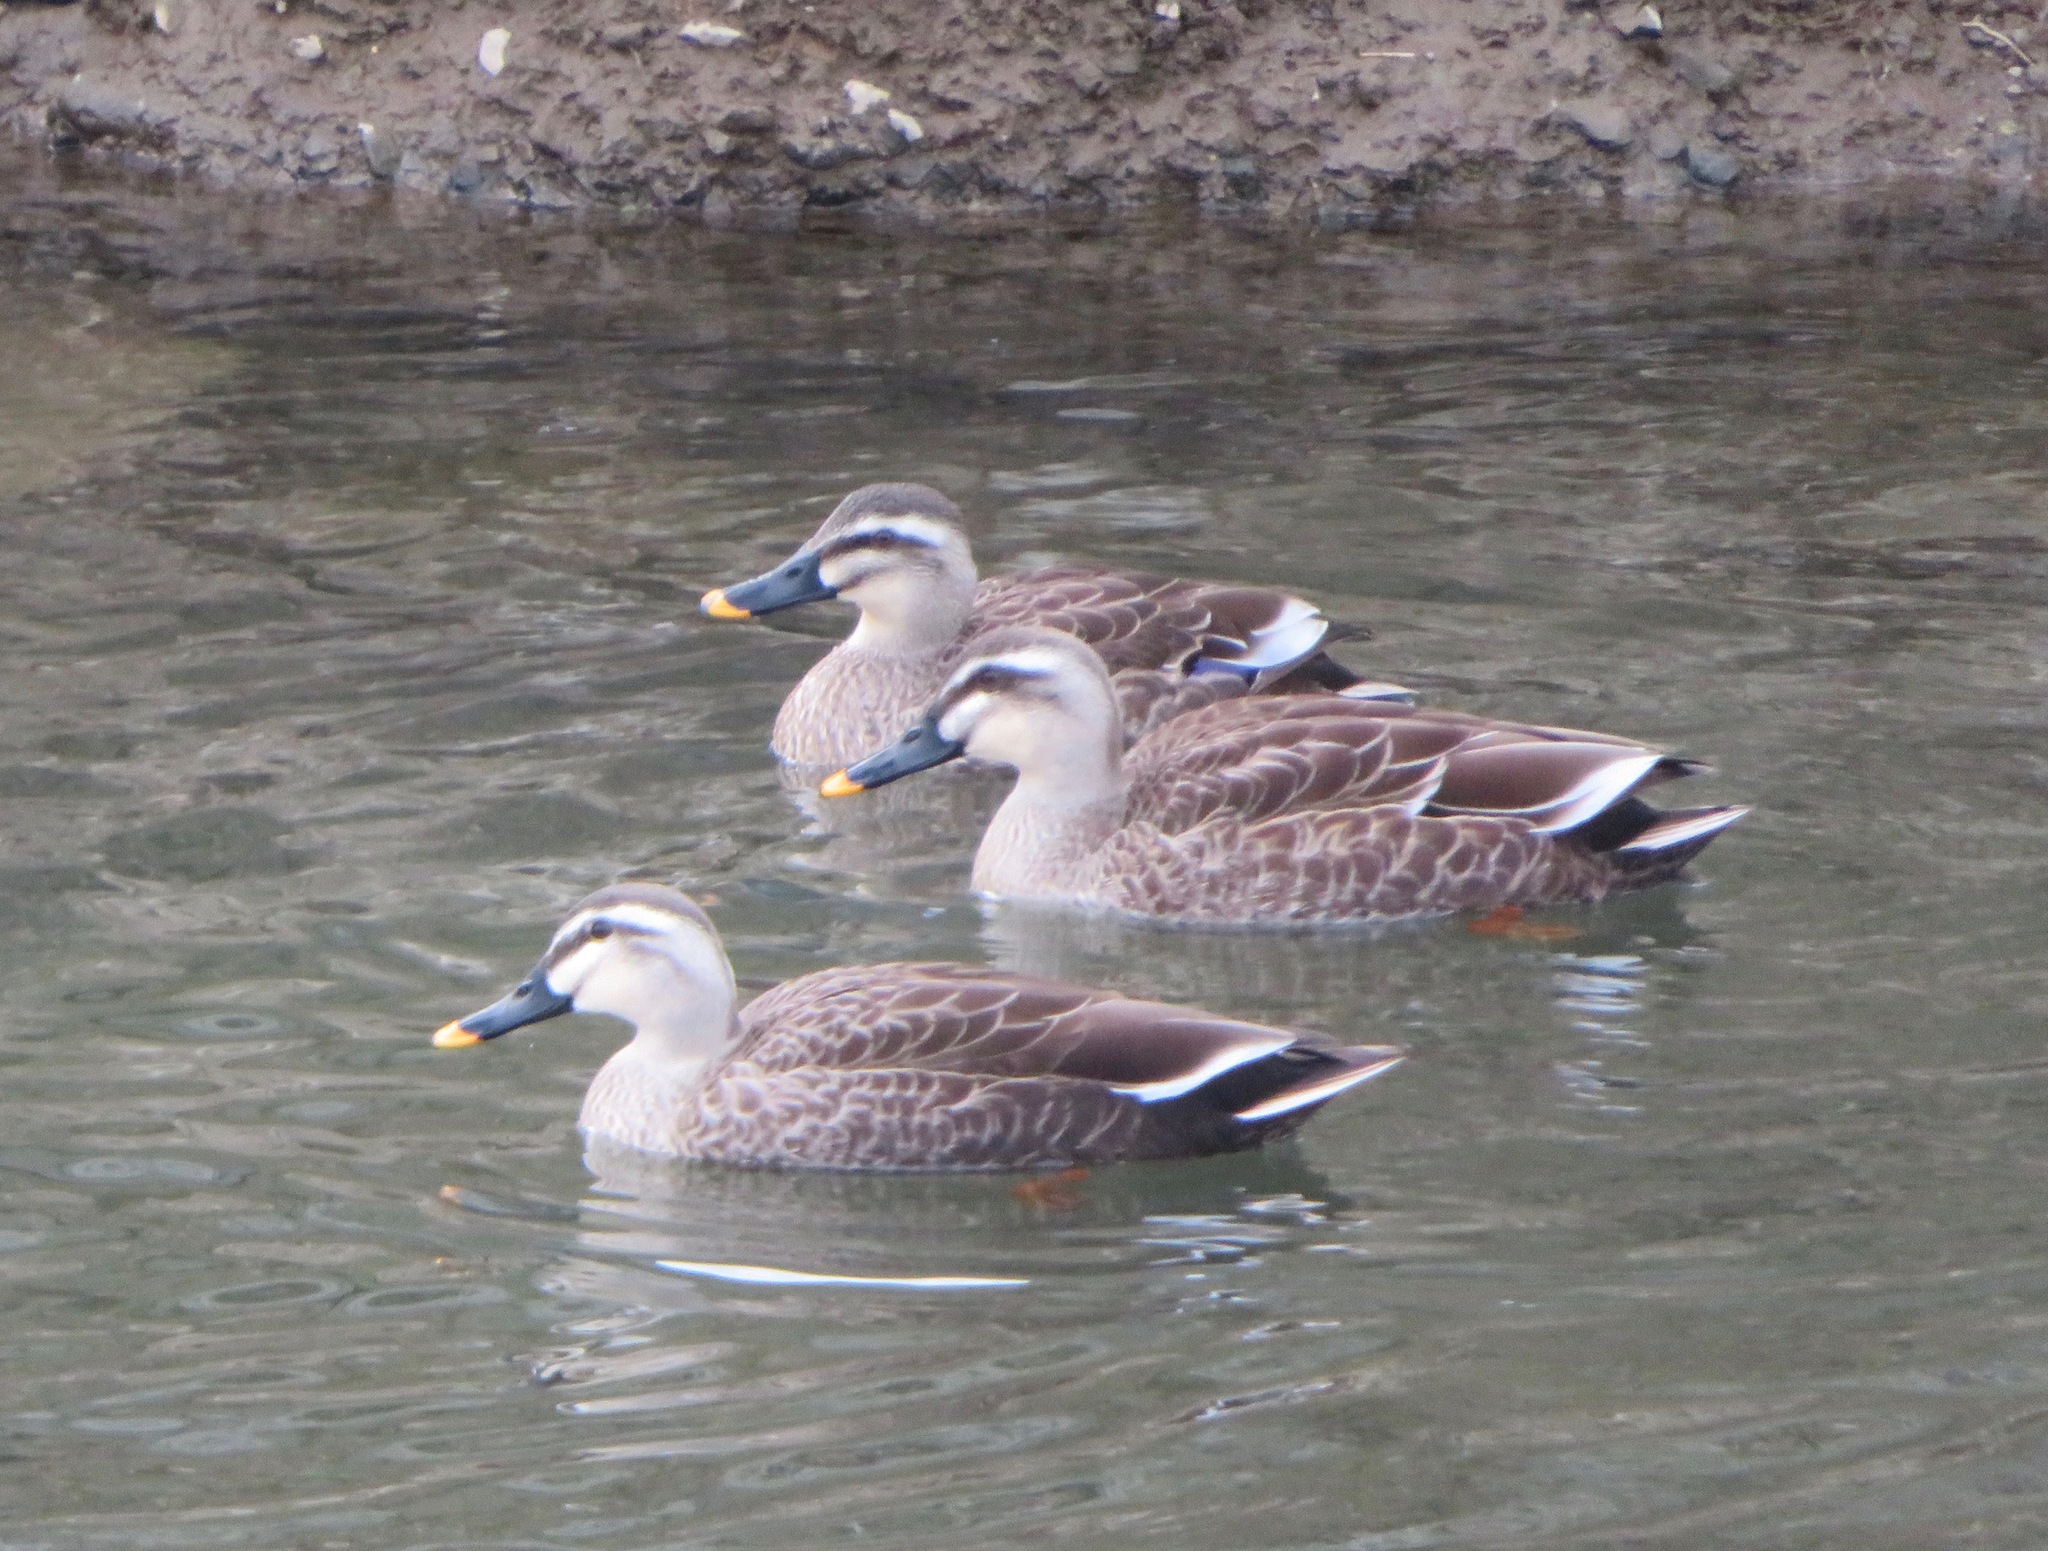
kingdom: Animalia
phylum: Chordata
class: Aves
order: Anseriformes
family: Anatidae
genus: Anas
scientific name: Anas zonorhyncha
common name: Eastern spot-billed duck
